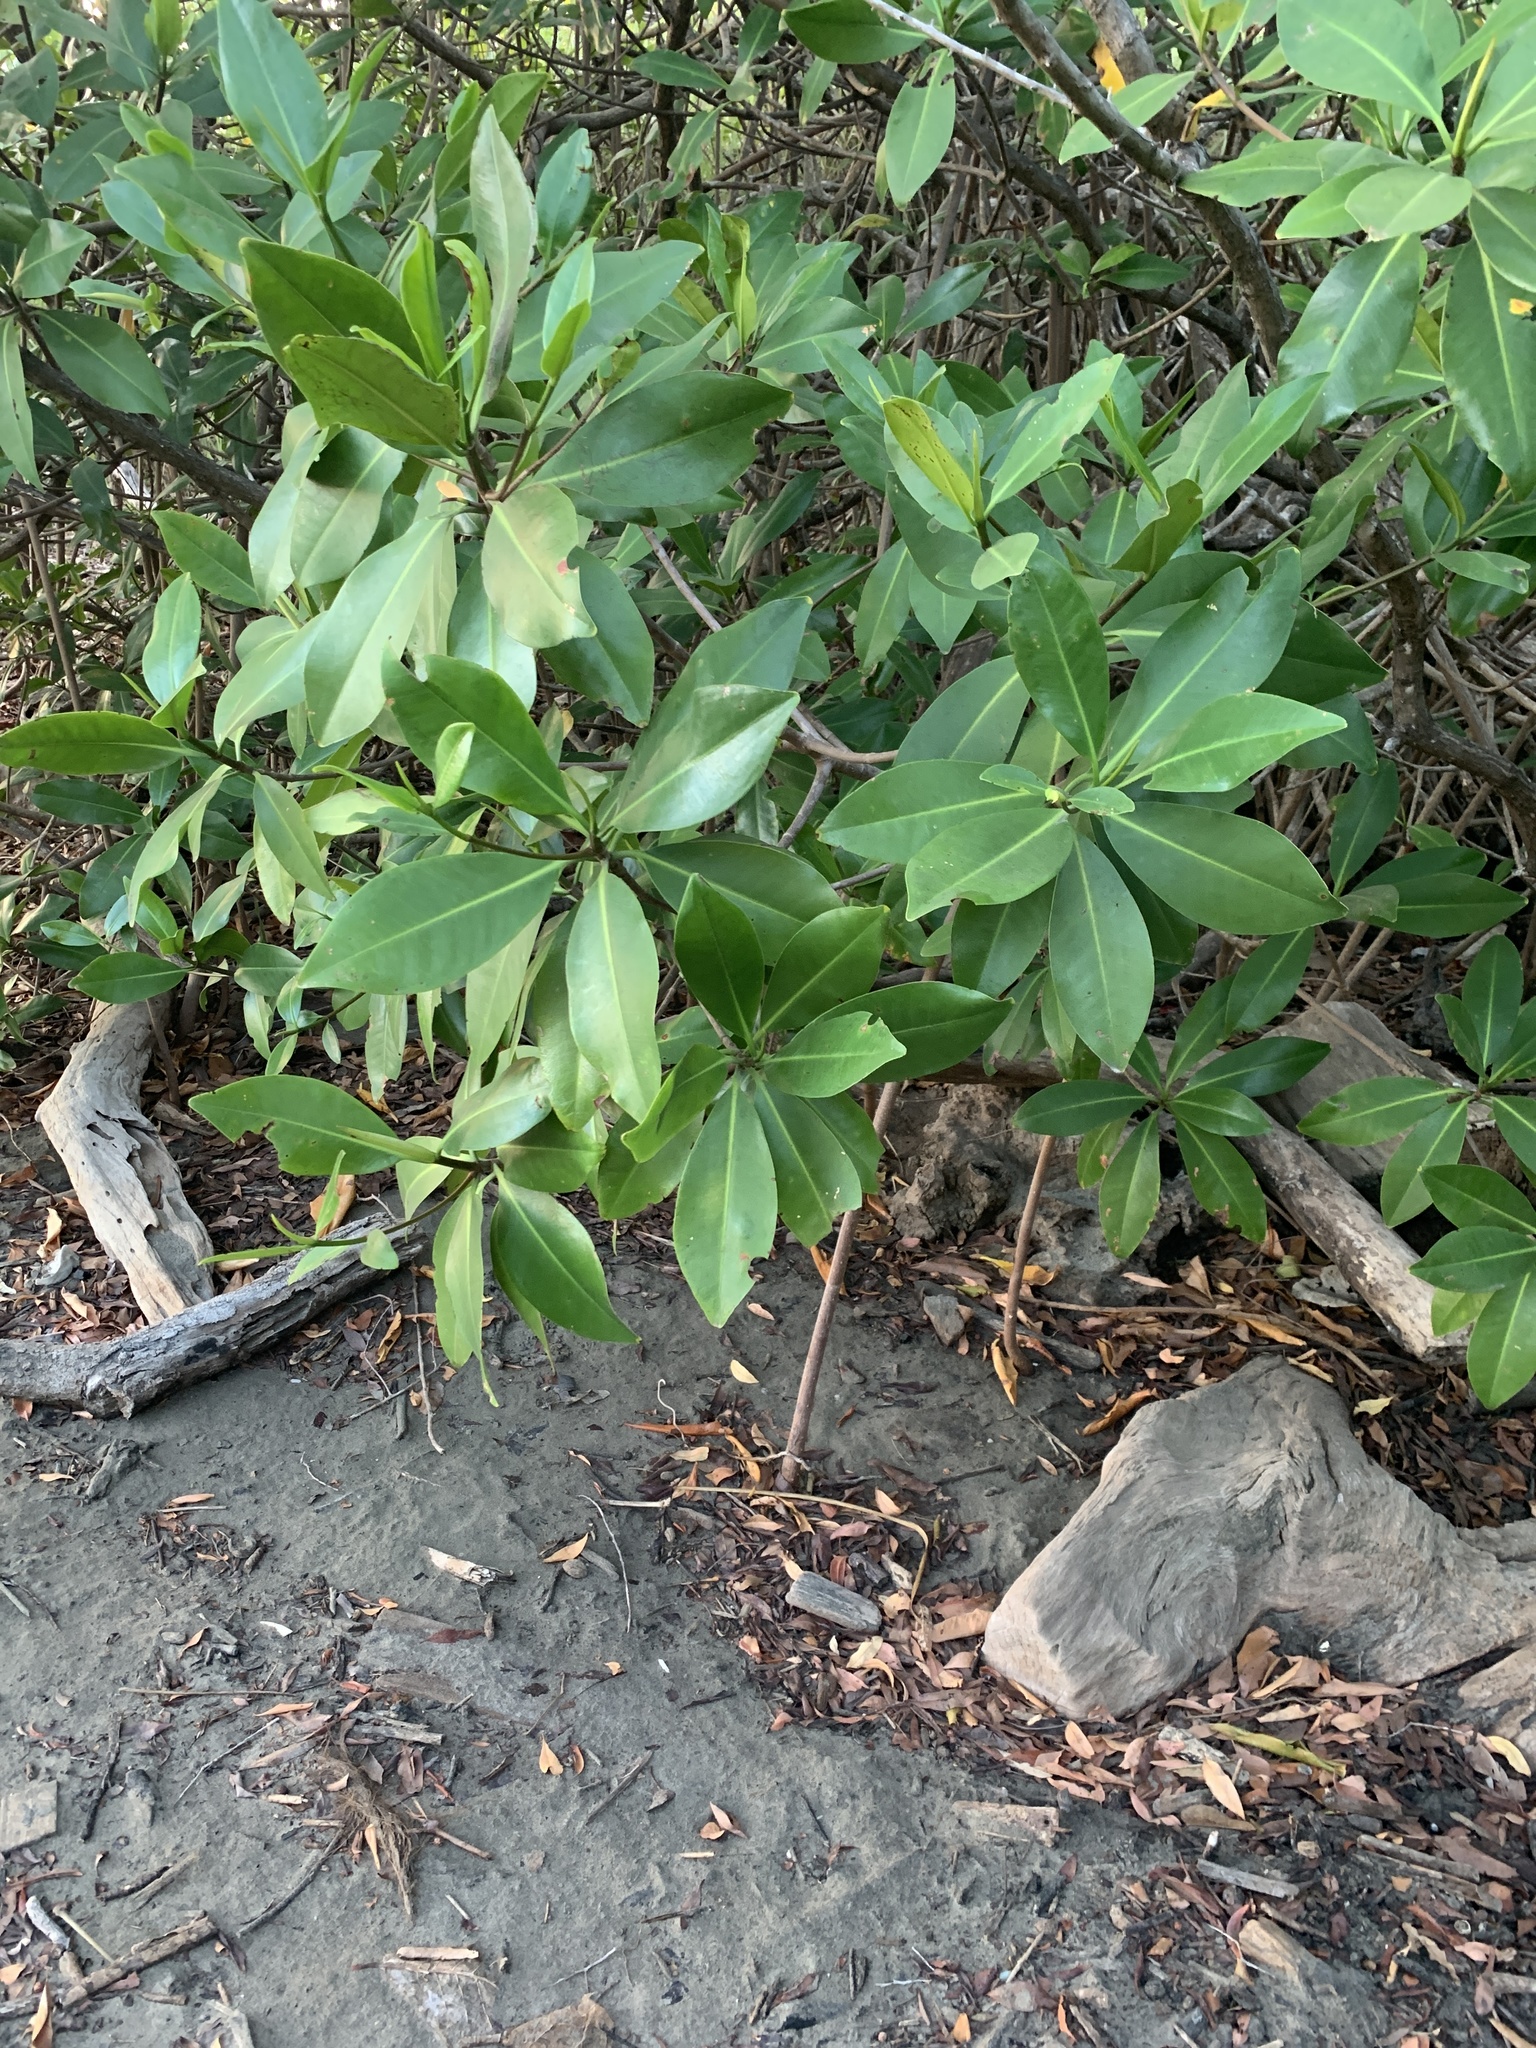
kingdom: Plantae
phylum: Tracheophyta
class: Magnoliopsida
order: Malpighiales
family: Rhizophoraceae
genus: Rhizophora
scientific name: Rhizophora mangle
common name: Red mangrove
